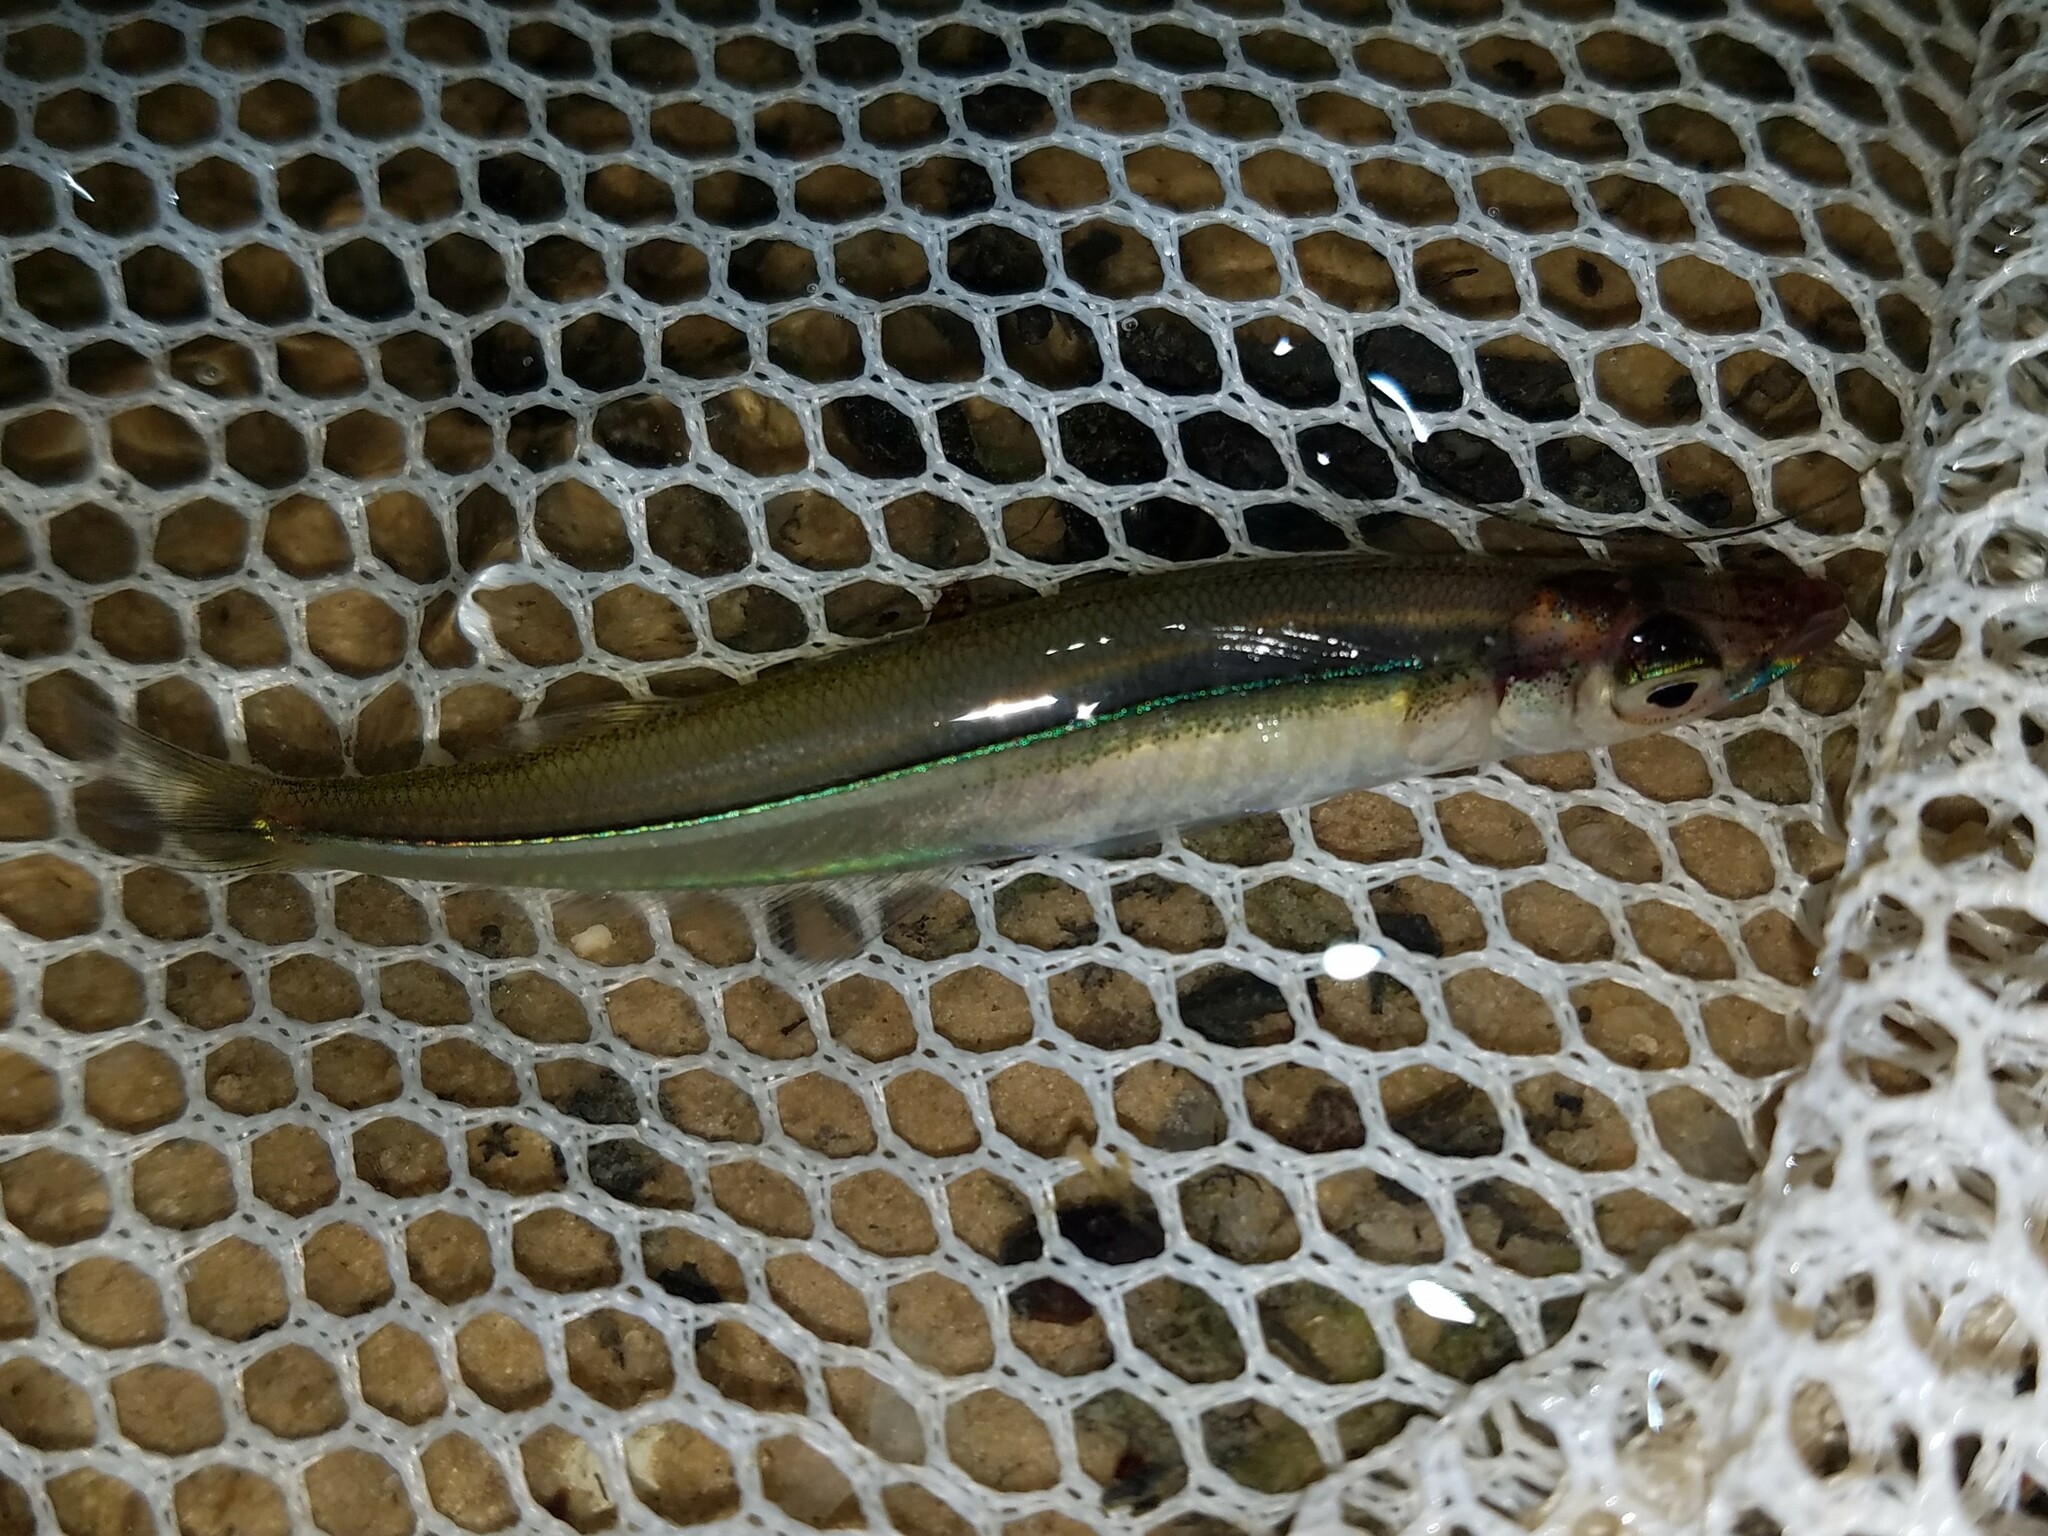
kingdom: Animalia
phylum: Chordata
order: Atheriniformes
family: Atherinopsidae
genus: Labidesthes
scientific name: Labidesthes vanhyningi
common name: Golden silverside
